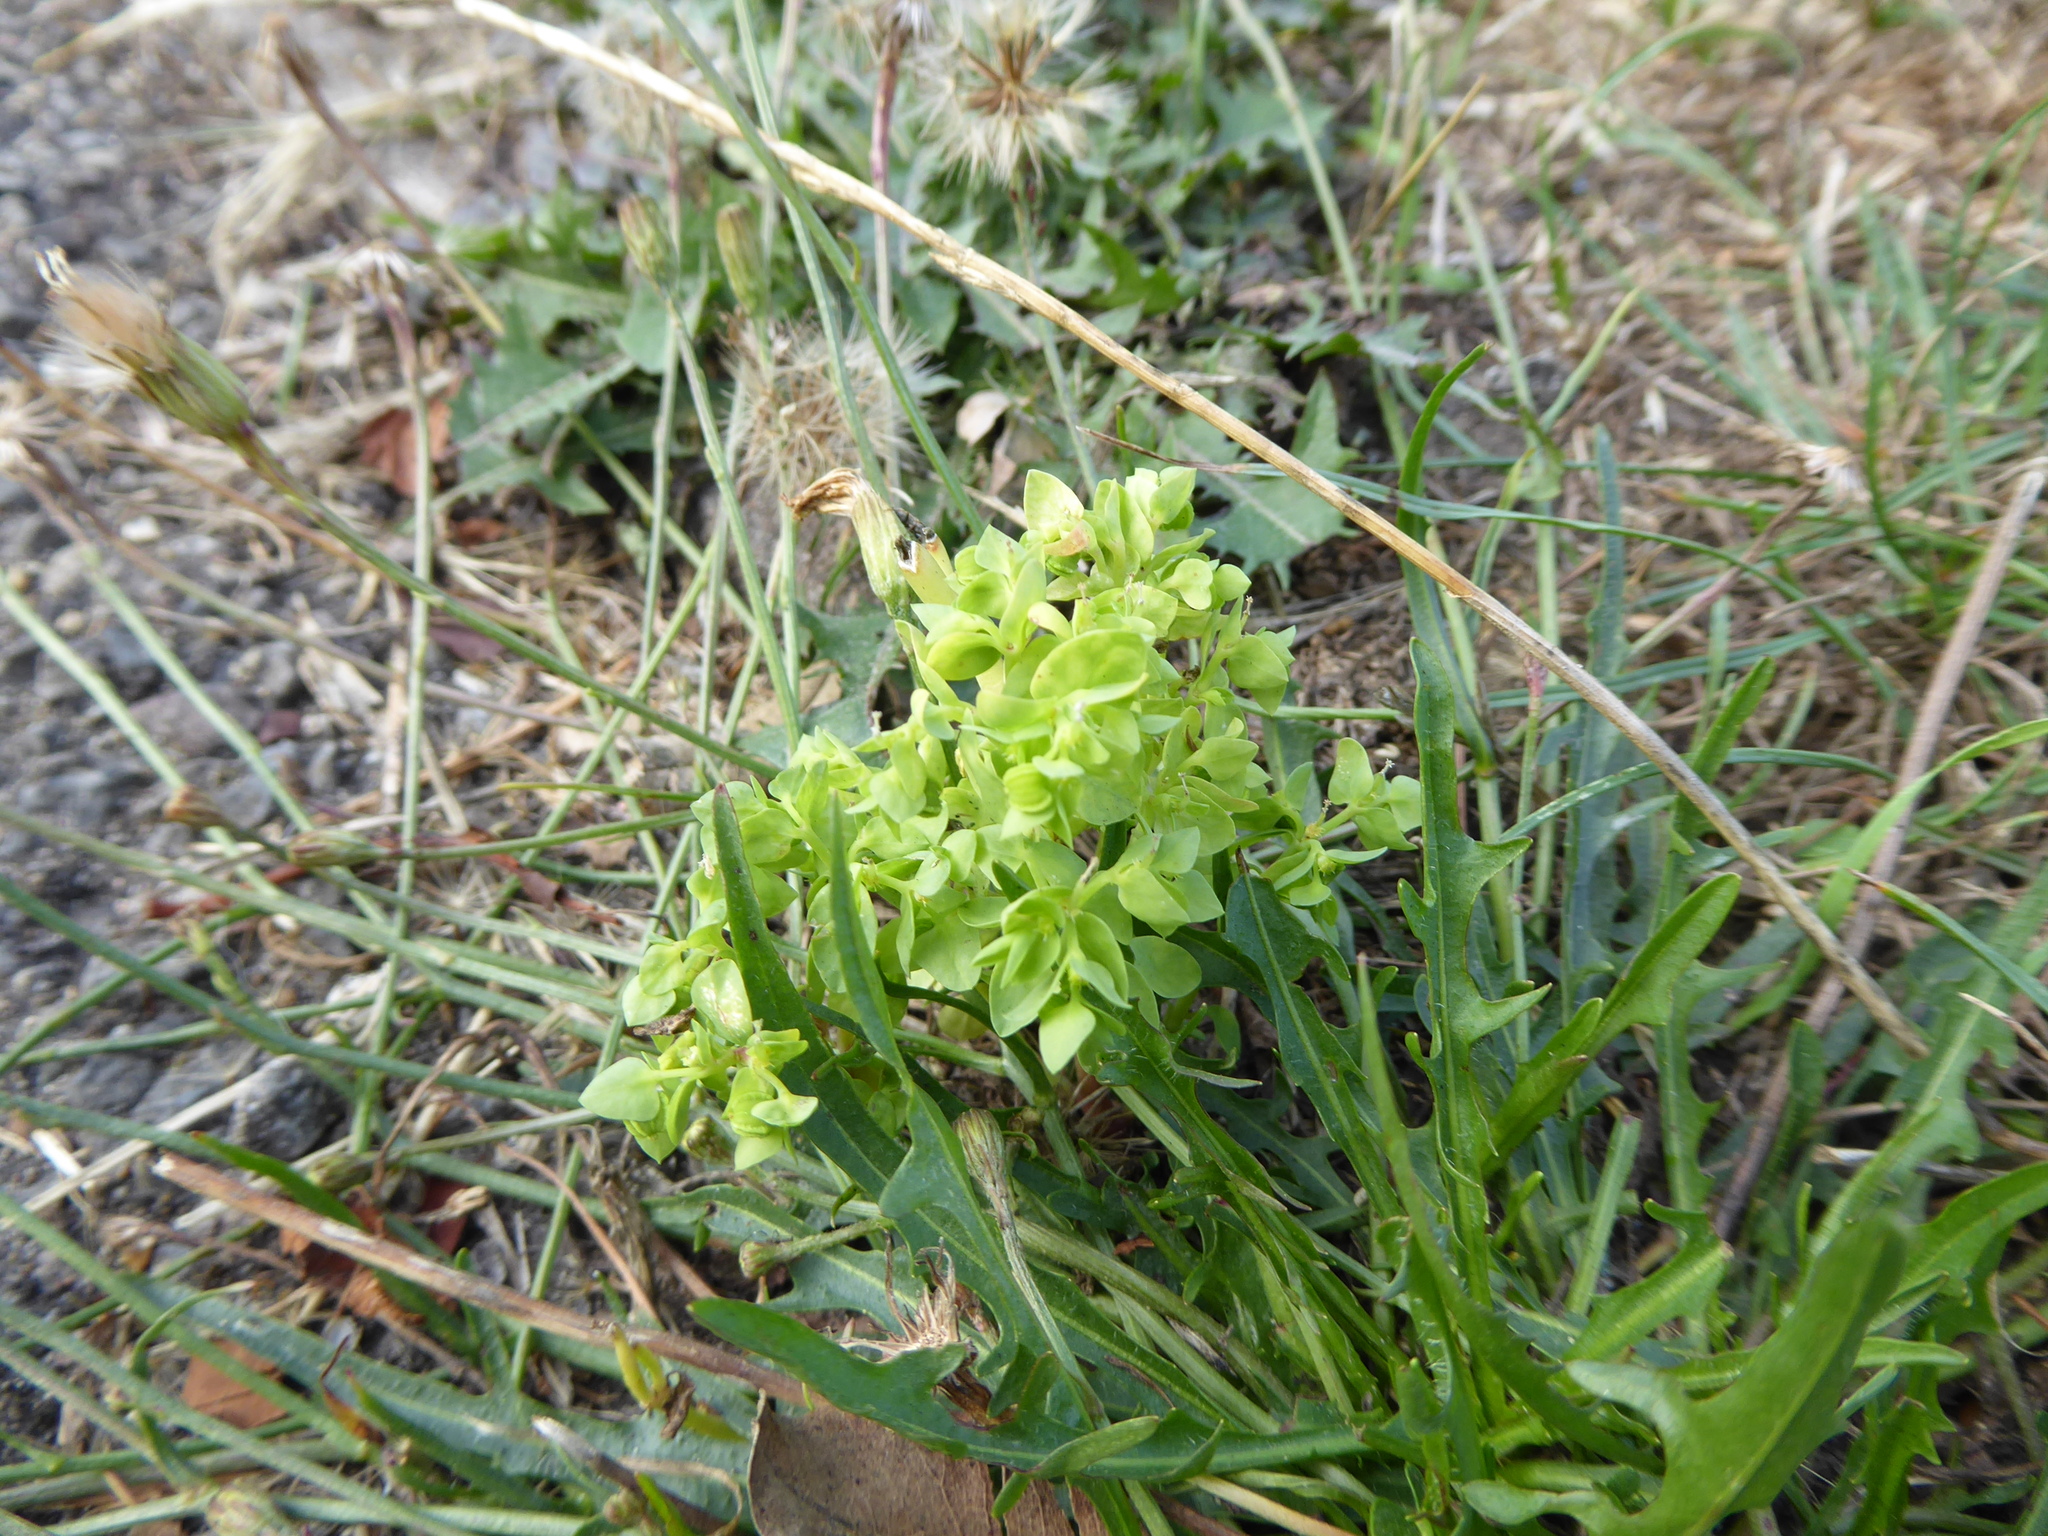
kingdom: Plantae
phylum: Tracheophyta
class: Magnoliopsida
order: Malpighiales
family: Euphorbiaceae
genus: Euphorbia
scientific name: Euphorbia peplus
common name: Petty spurge
